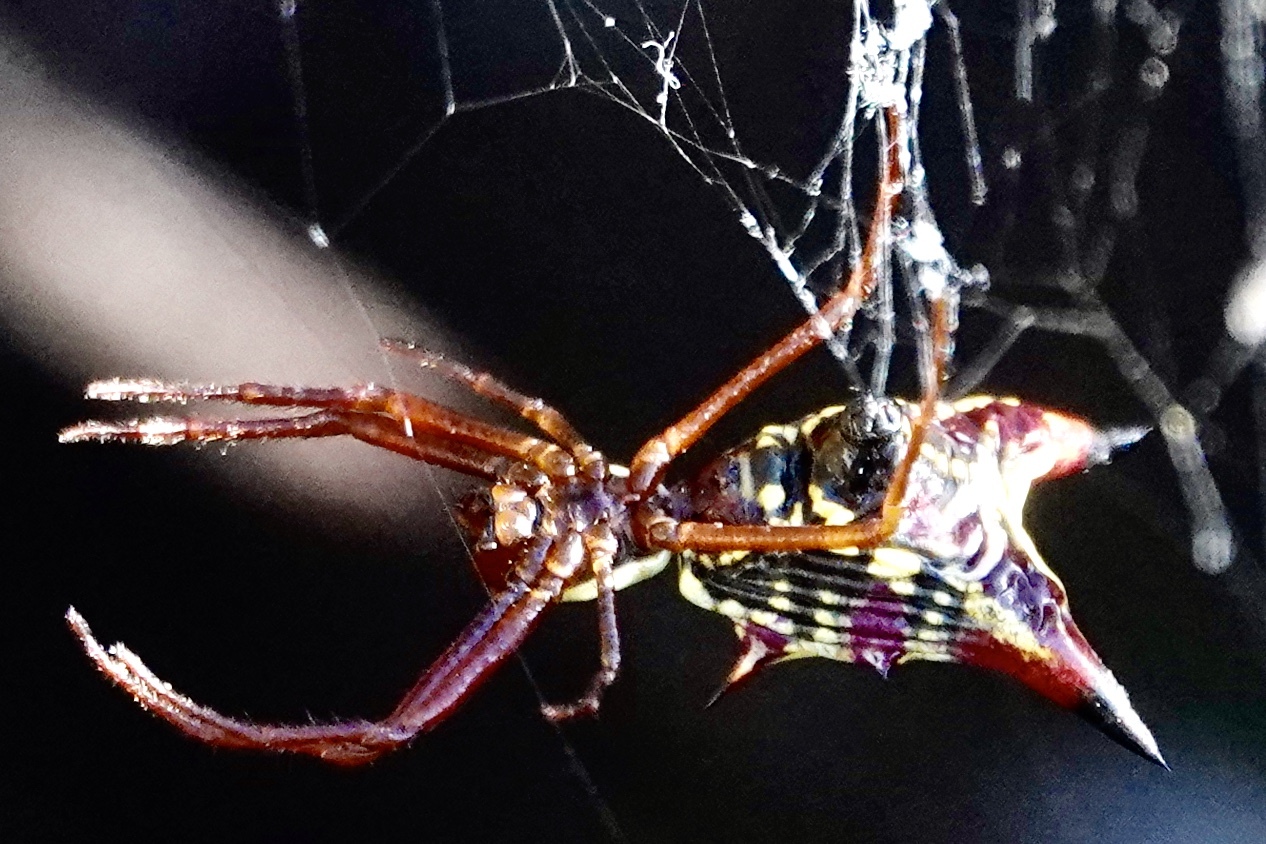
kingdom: Animalia
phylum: Arthropoda
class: Arachnida
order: Araneae
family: Araneidae
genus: Micrathena
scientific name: Micrathena sagittata
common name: Orb weavers
